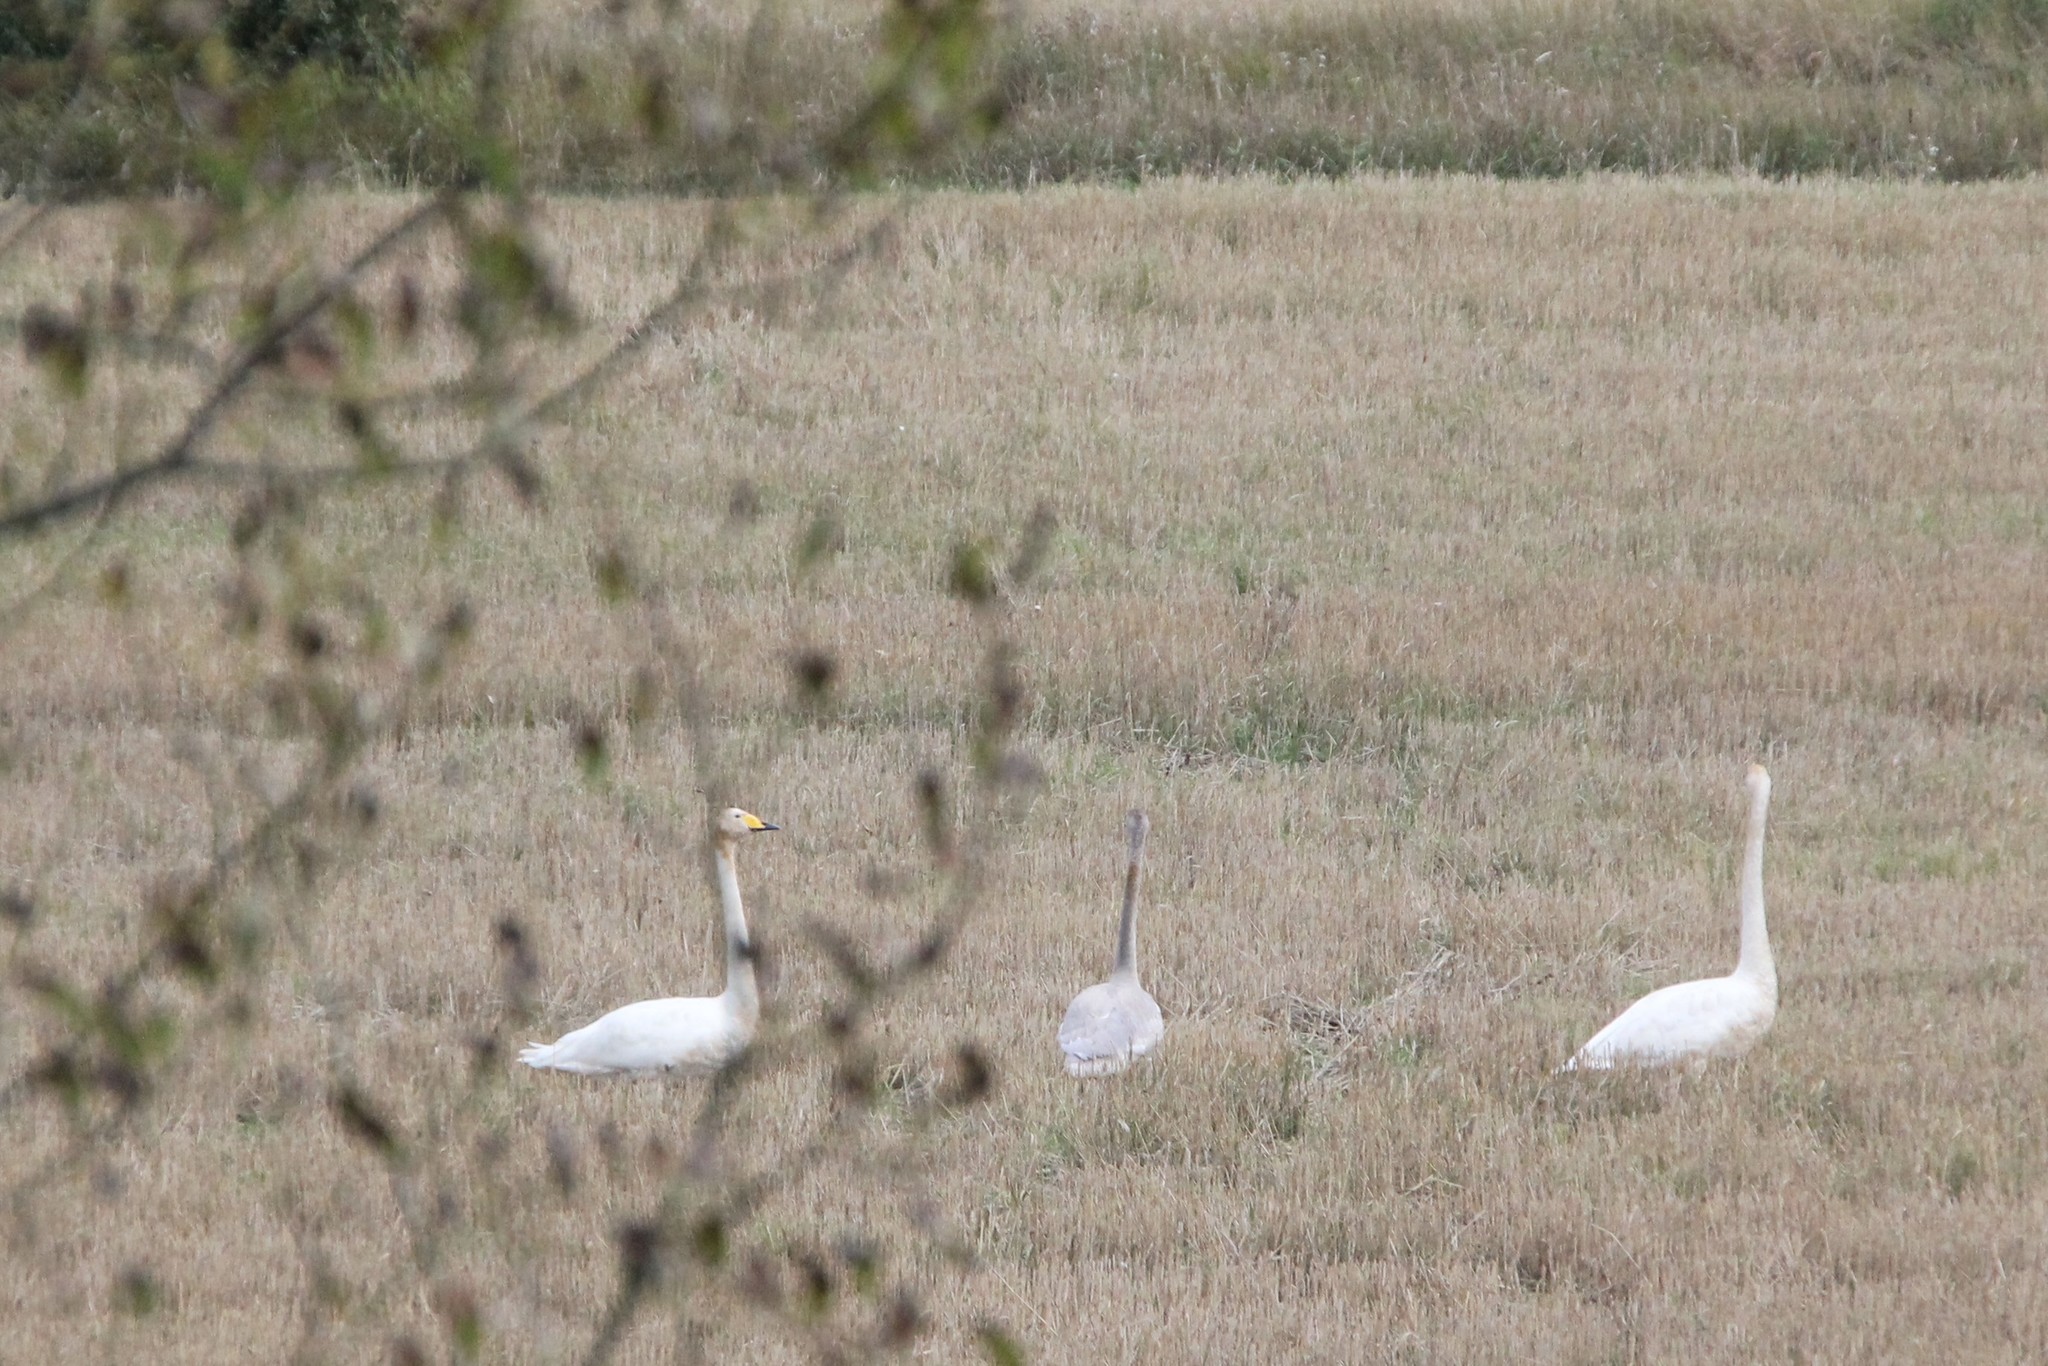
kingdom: Animalia
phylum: Chordata
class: Aves
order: Anseriformes
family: Anatidae
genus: Cygnus
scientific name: Cygnus cygnus
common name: Whooper swan
